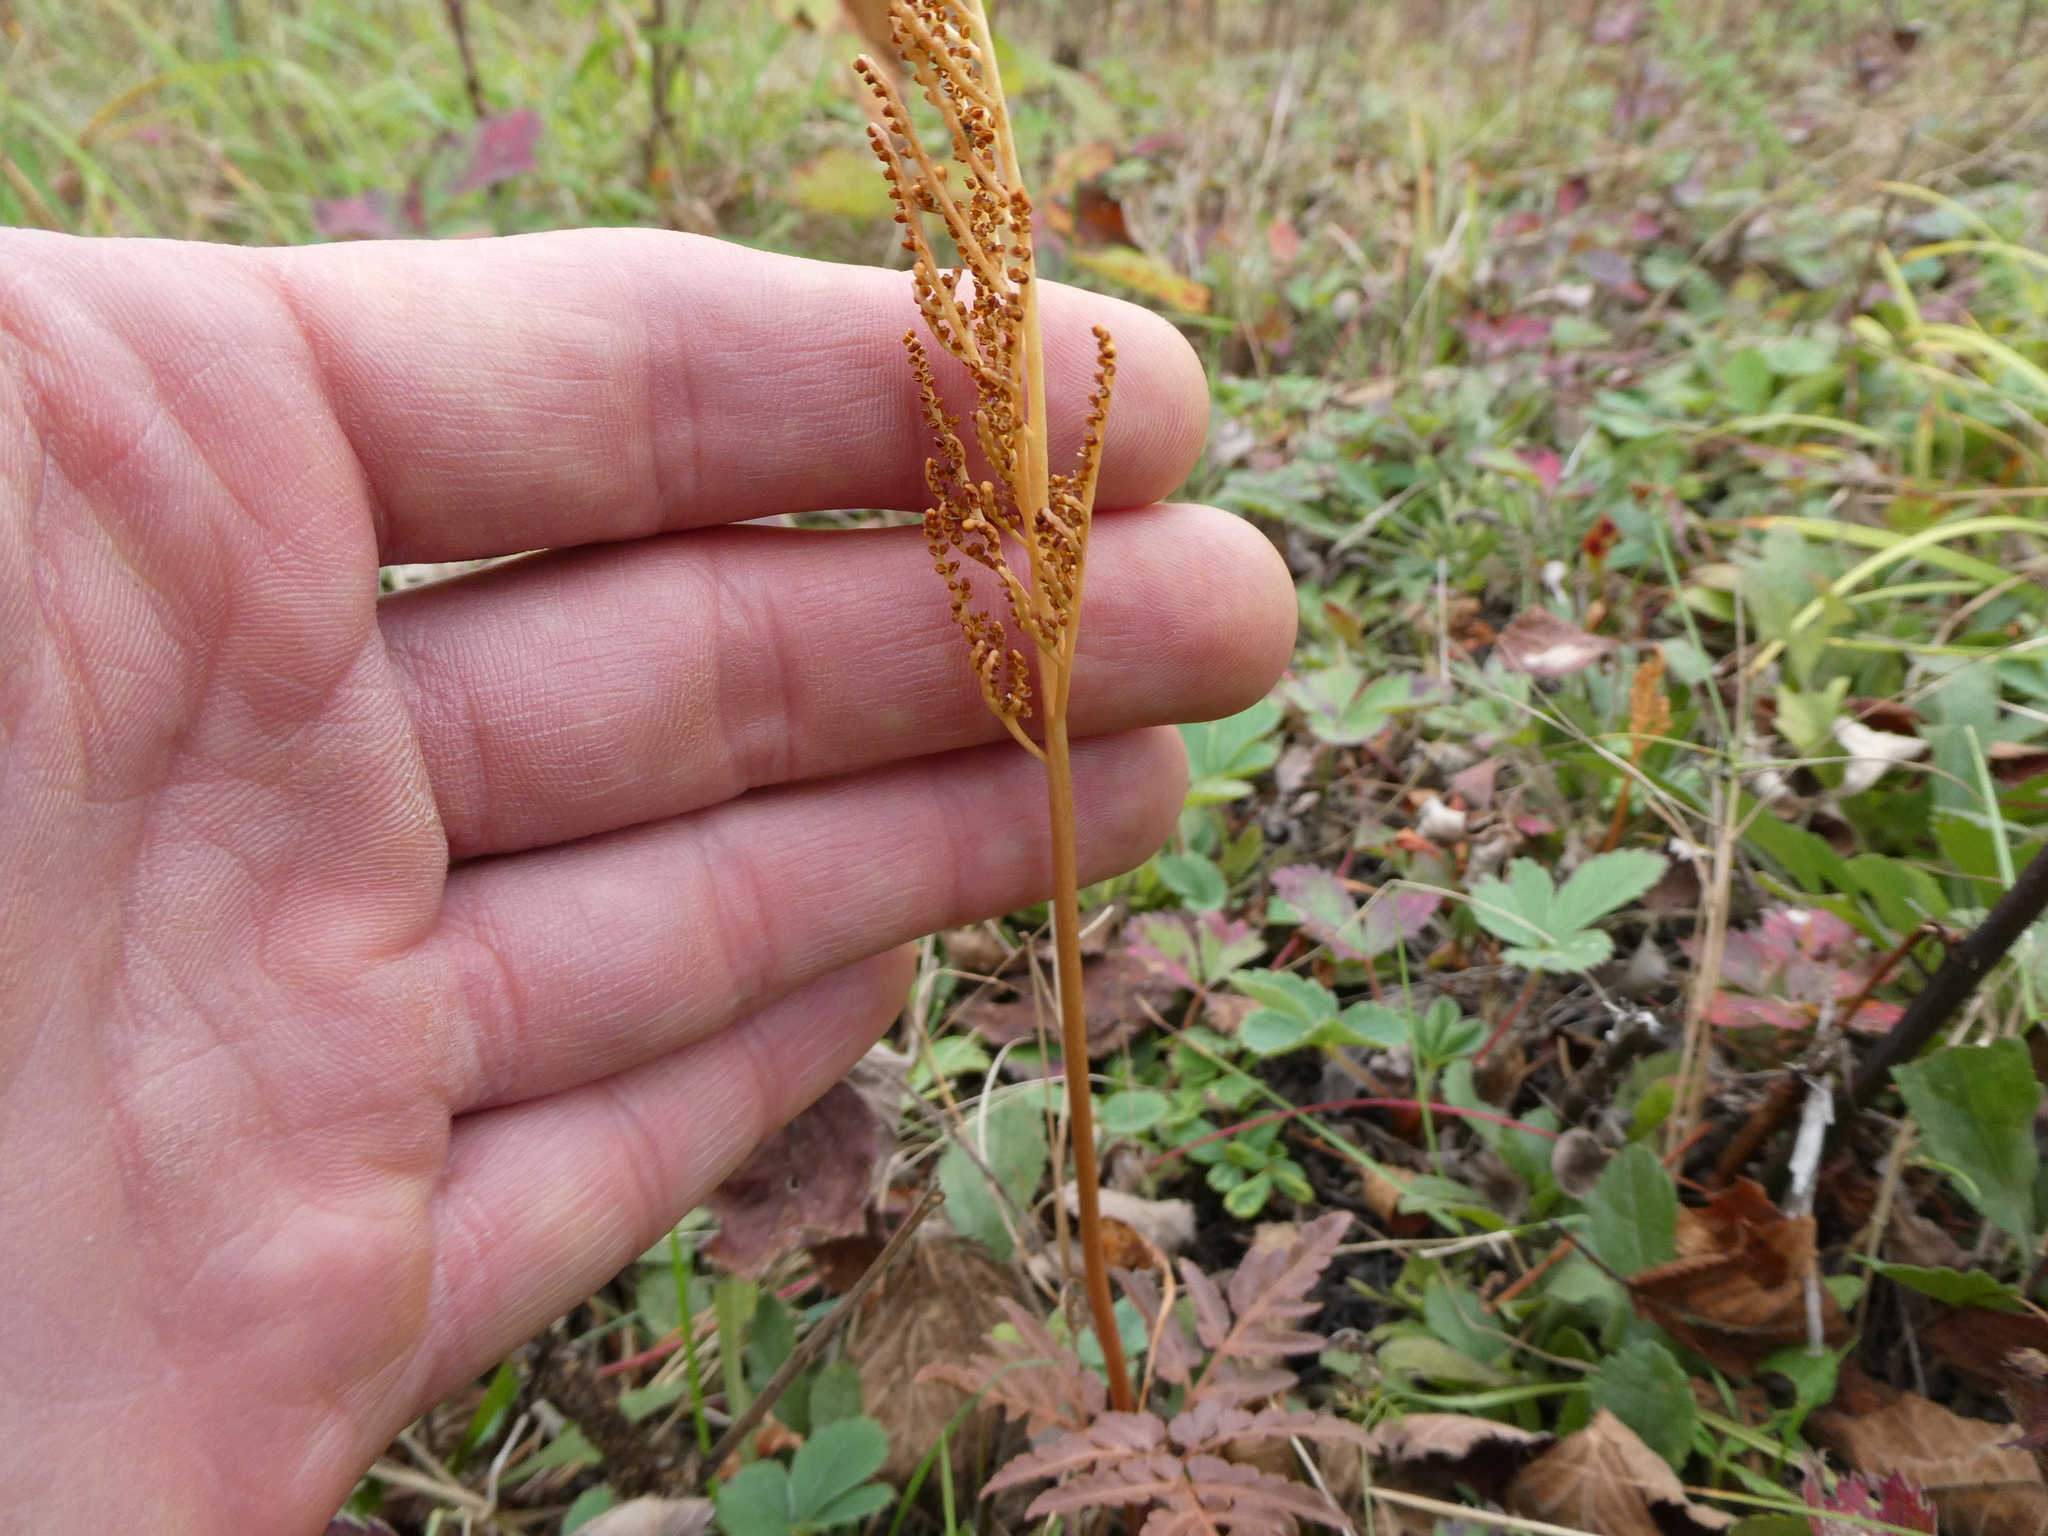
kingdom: Plantae
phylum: Tracheophyta
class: Polypodiopsida
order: Ophioglossales
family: Ophioglossaceae
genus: Sceptridium
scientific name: Sceptridium dissectum
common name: Cut-leaved grapefern
